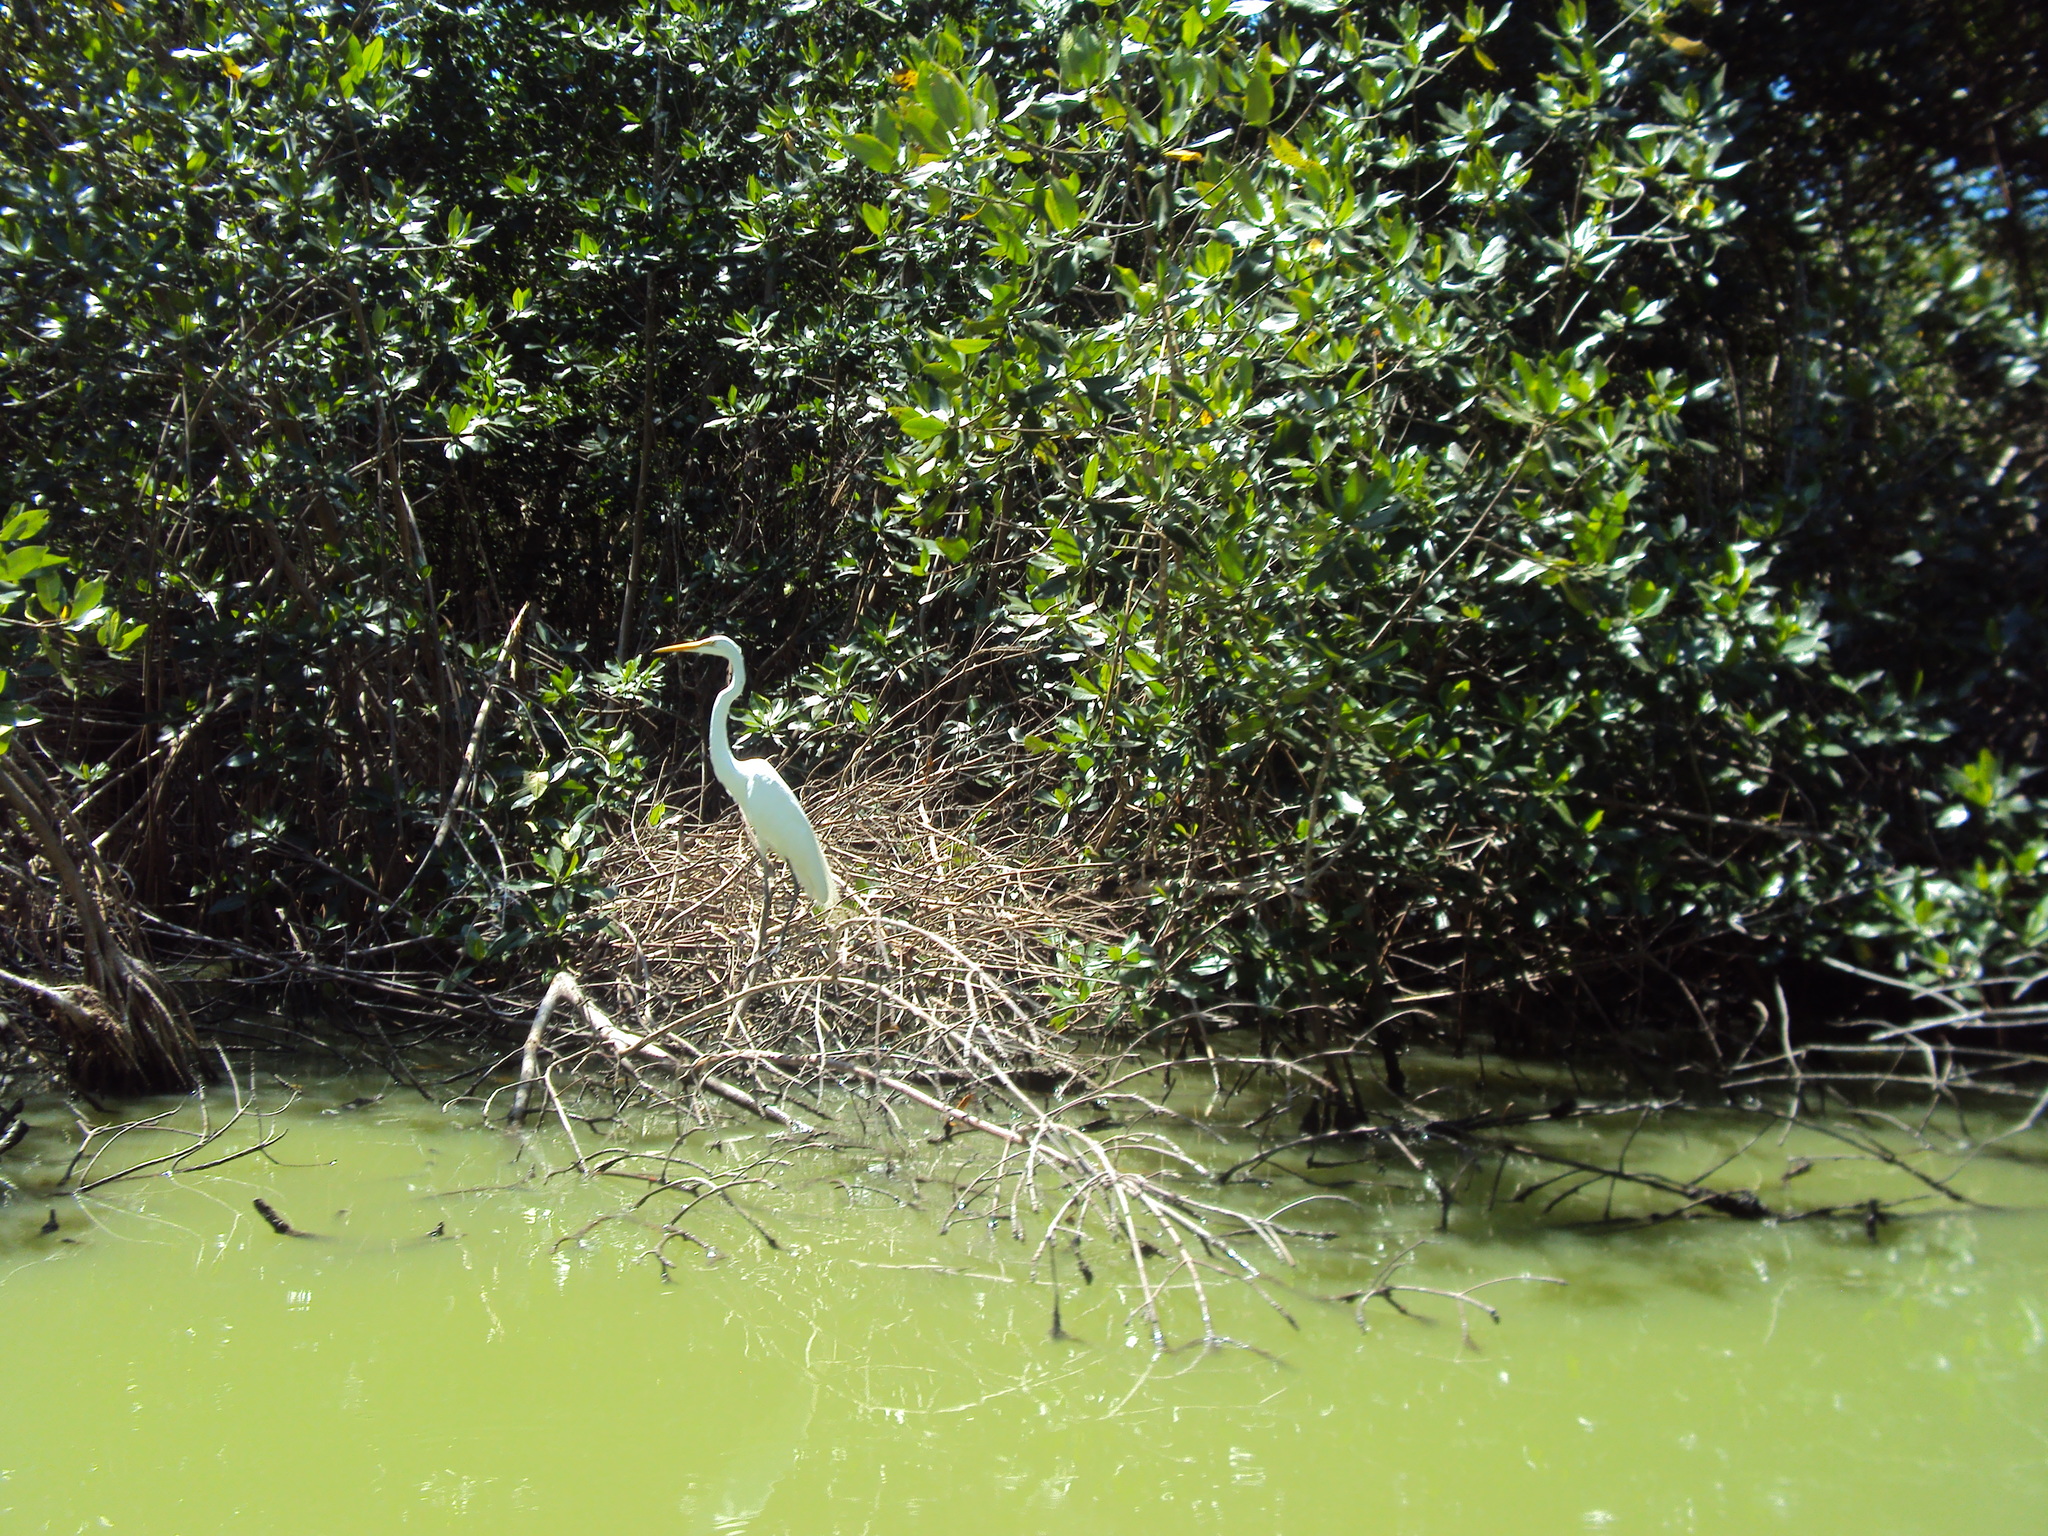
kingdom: Animalia
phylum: Chordata
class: Aves
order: Pelecaniformes
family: Ardeidae
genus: Ardea
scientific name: Ardea alba
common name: Great egret
